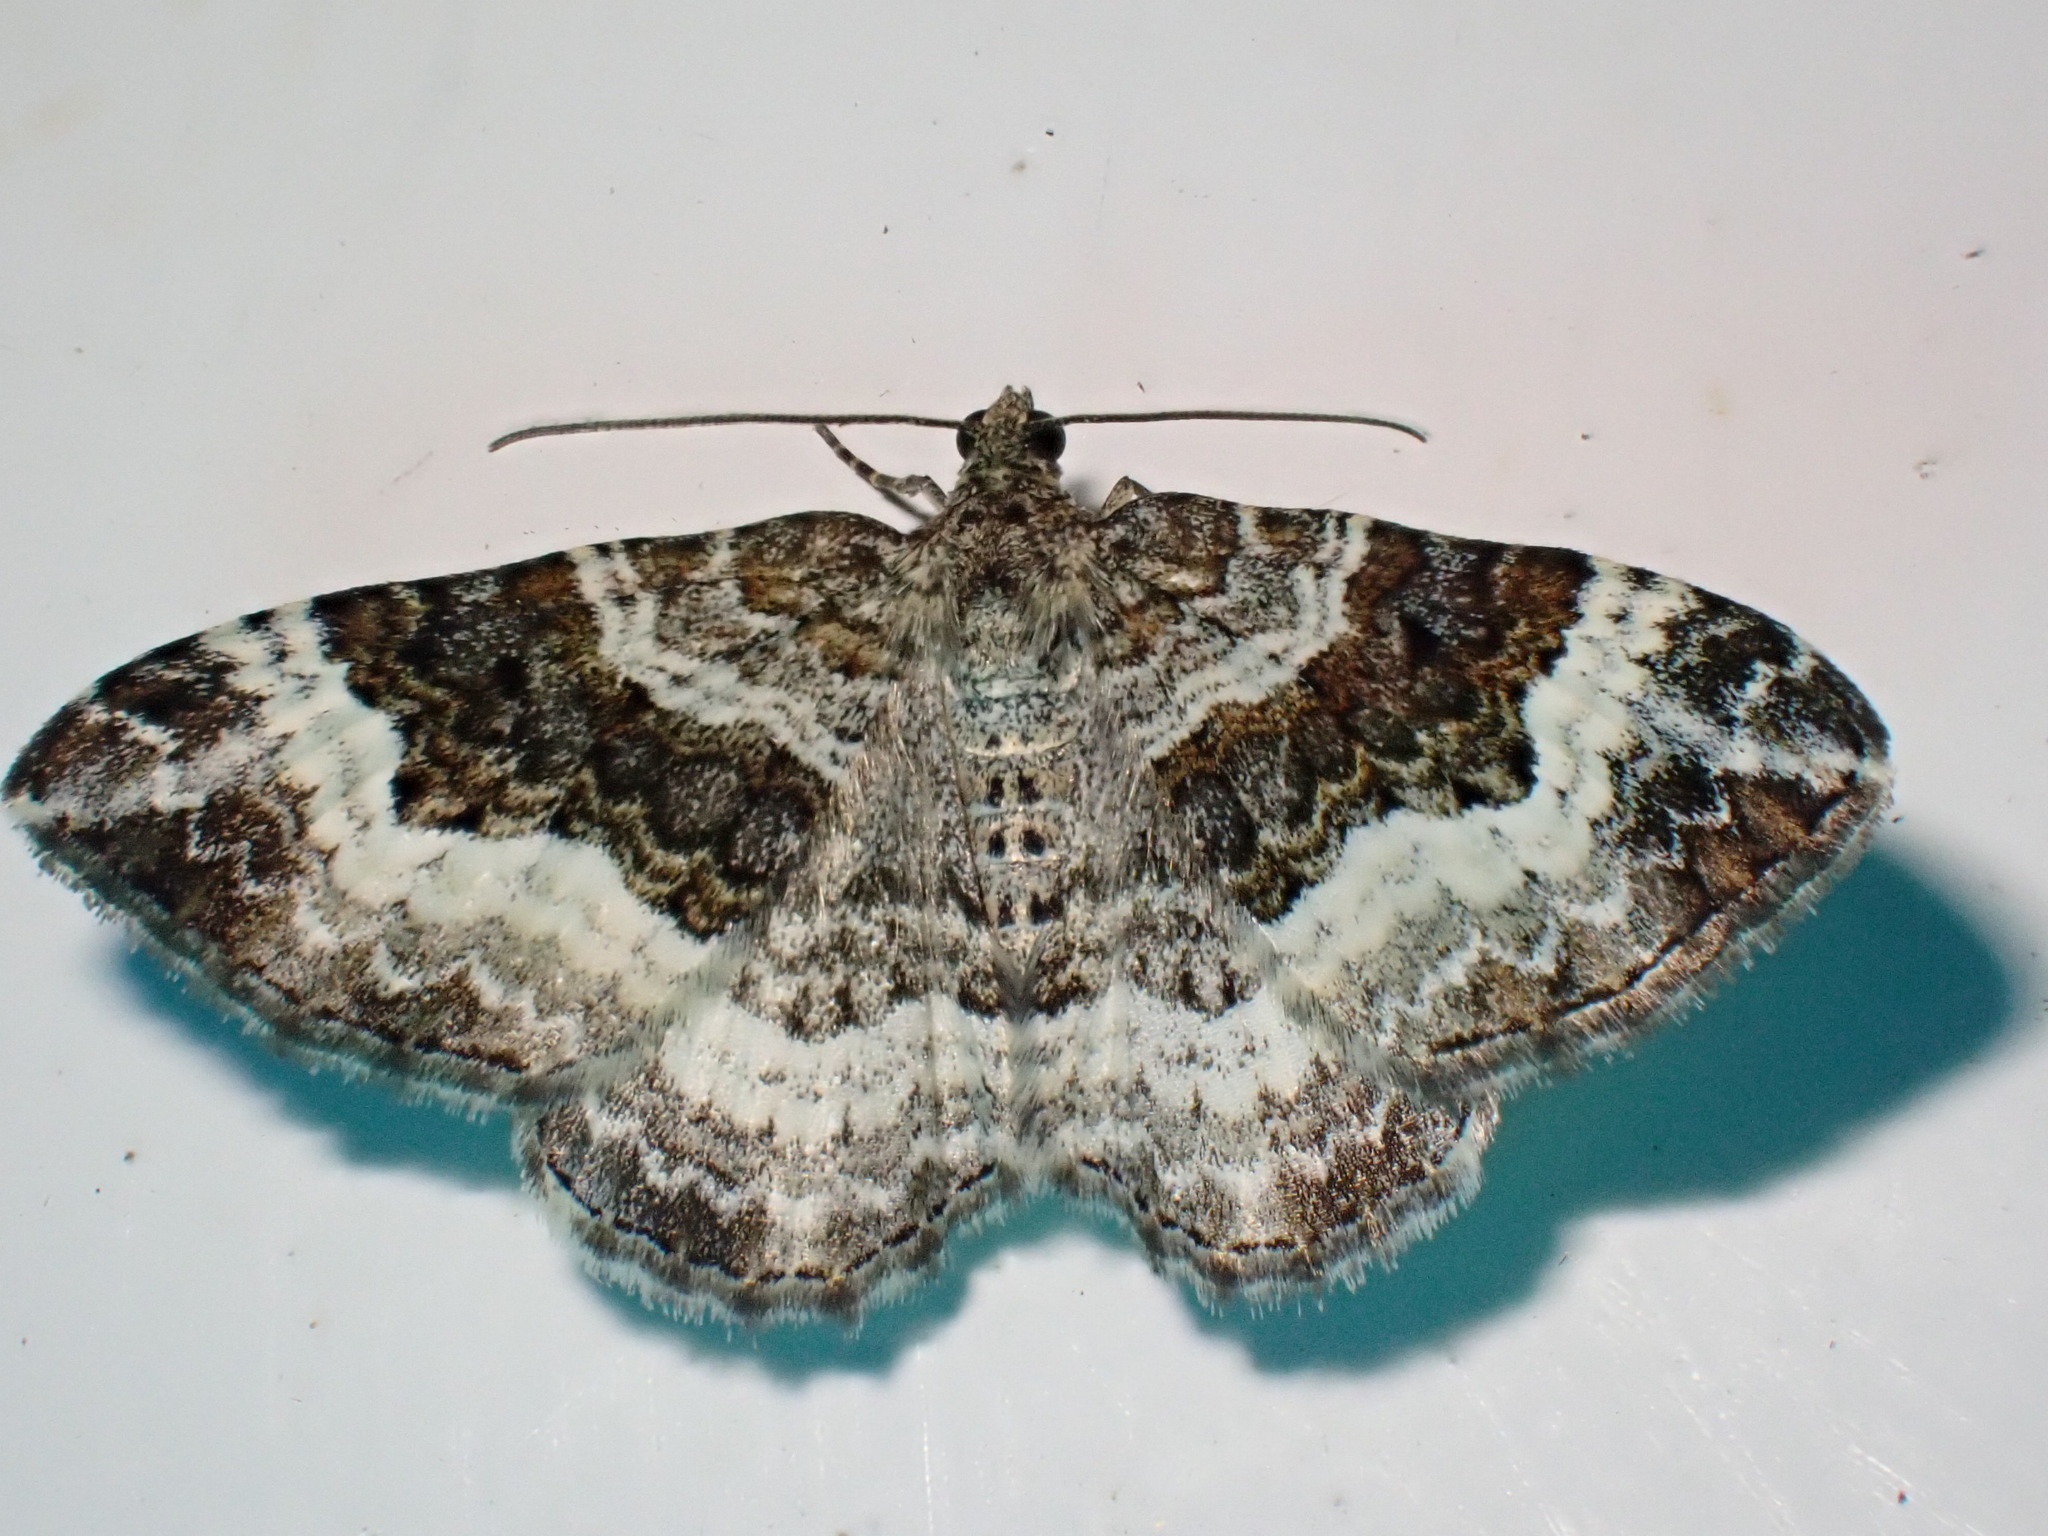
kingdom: Animalia
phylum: Arthropoda
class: Insecta
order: Lepidoptera
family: Geometridae
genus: Epirrhoe
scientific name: Epirrhoe alternata
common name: Common carpet
